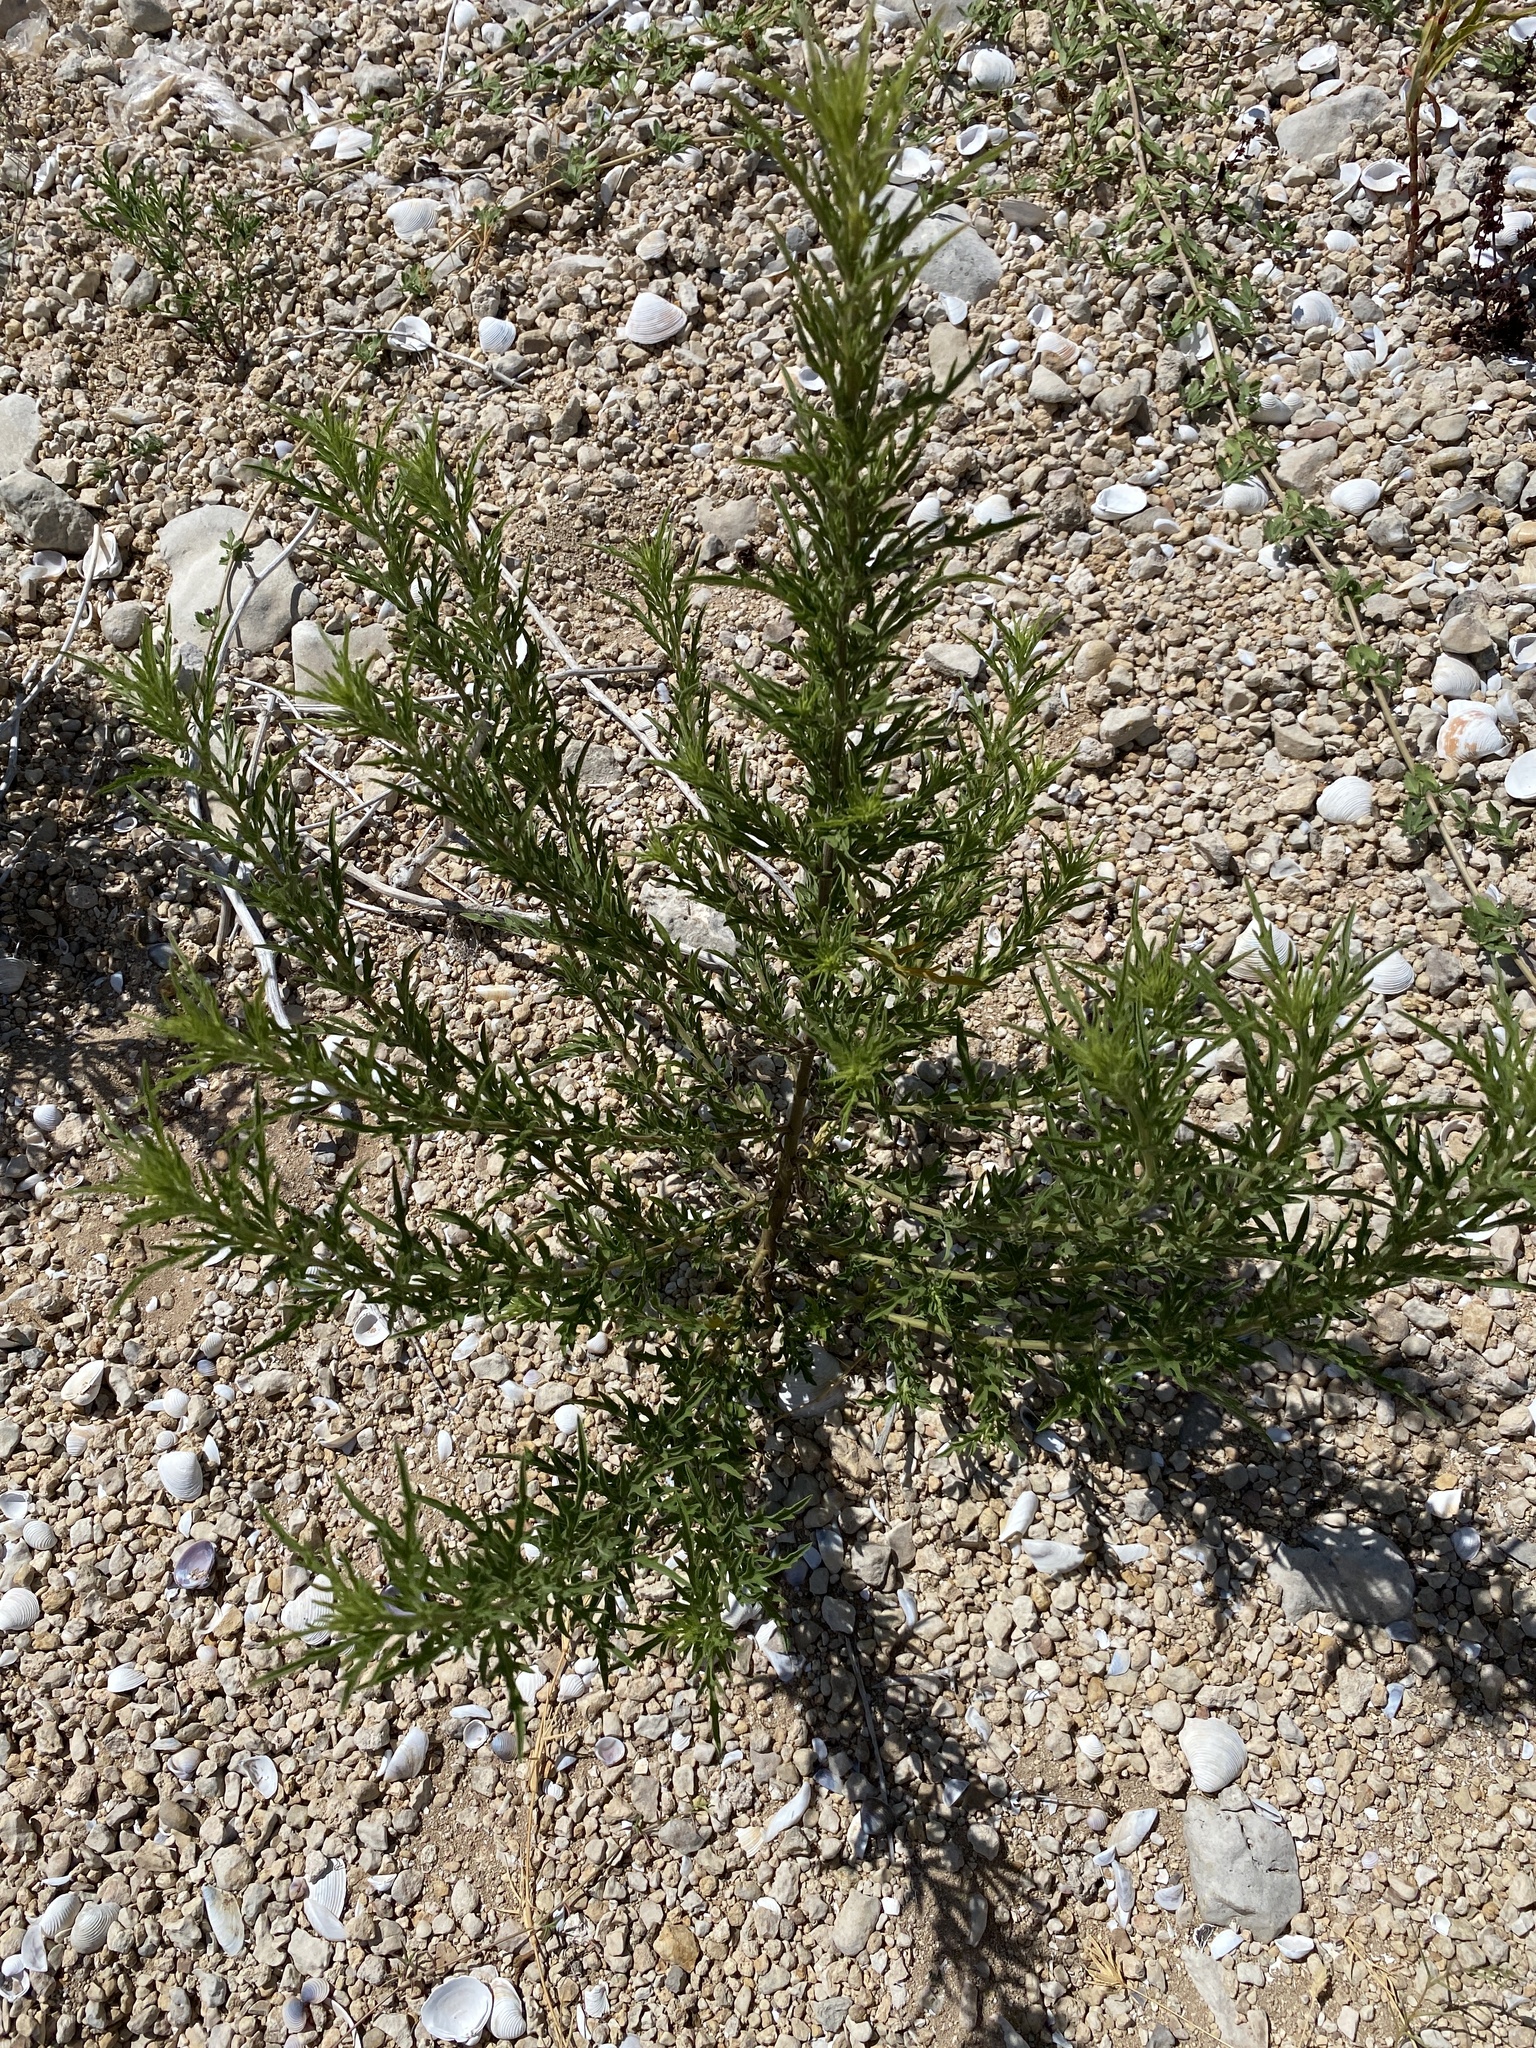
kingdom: Plantae
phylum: Tracheophyta
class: Magnoliopsida
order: Asterales
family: Asteraceae
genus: Ambrosia
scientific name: Ambrosia psilostachya
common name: Perennial ragweed
